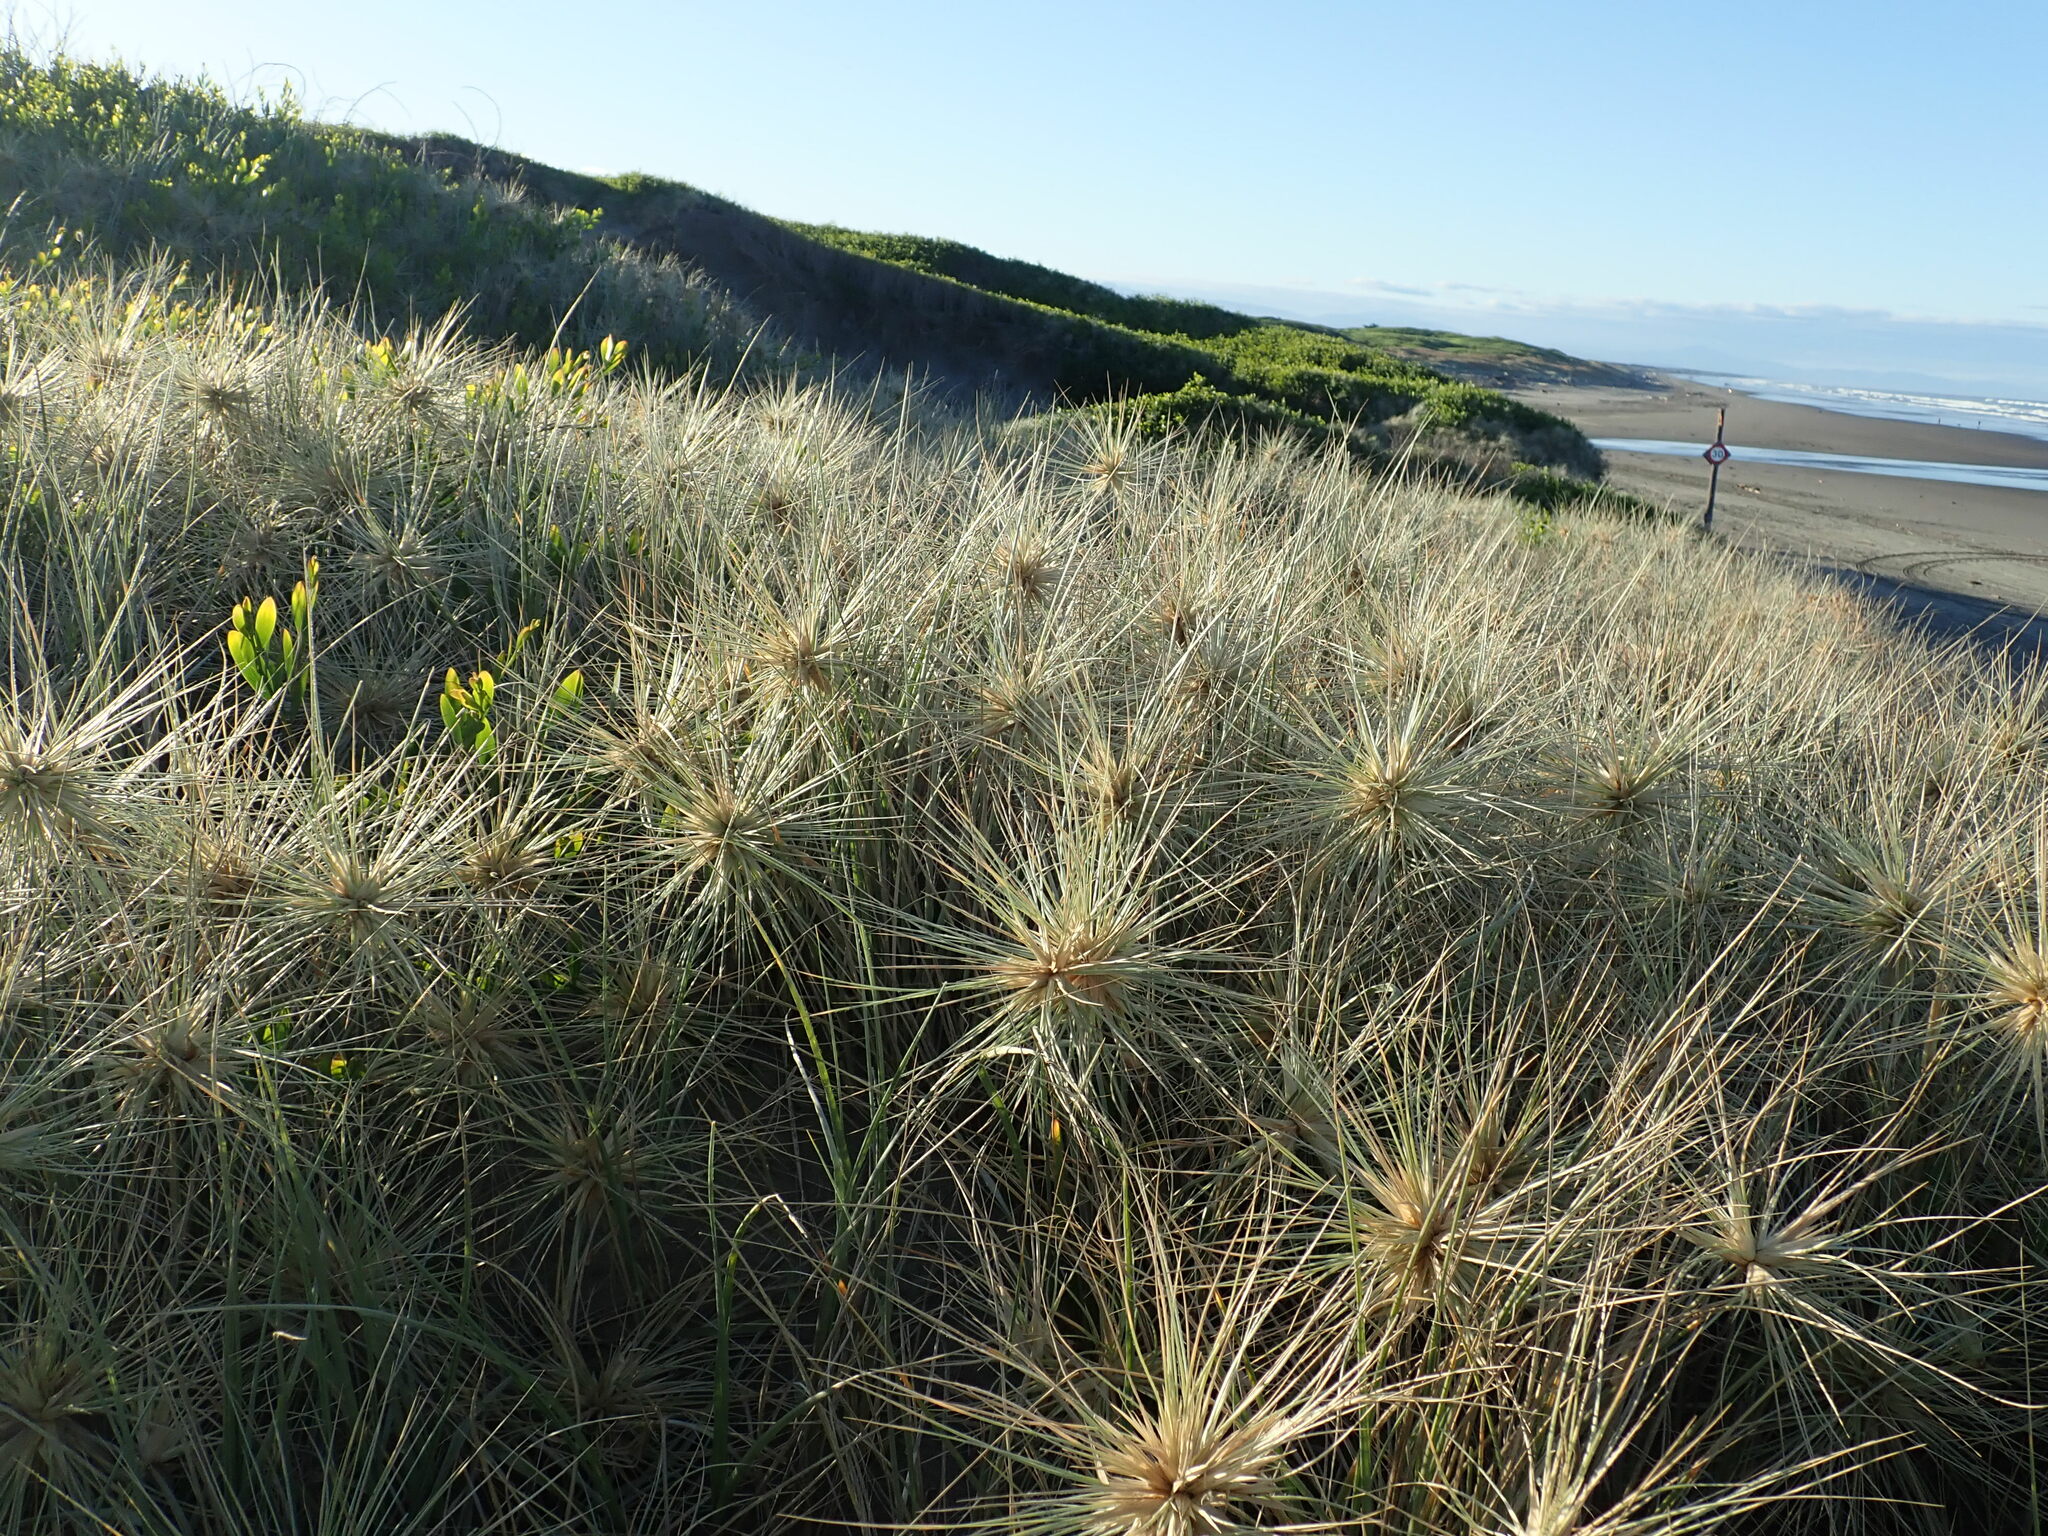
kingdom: Plantae
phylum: Tracheophyta
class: Liliopsida
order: Poales
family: Poaceae
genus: Spinifex
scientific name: Spinifex sericeus
